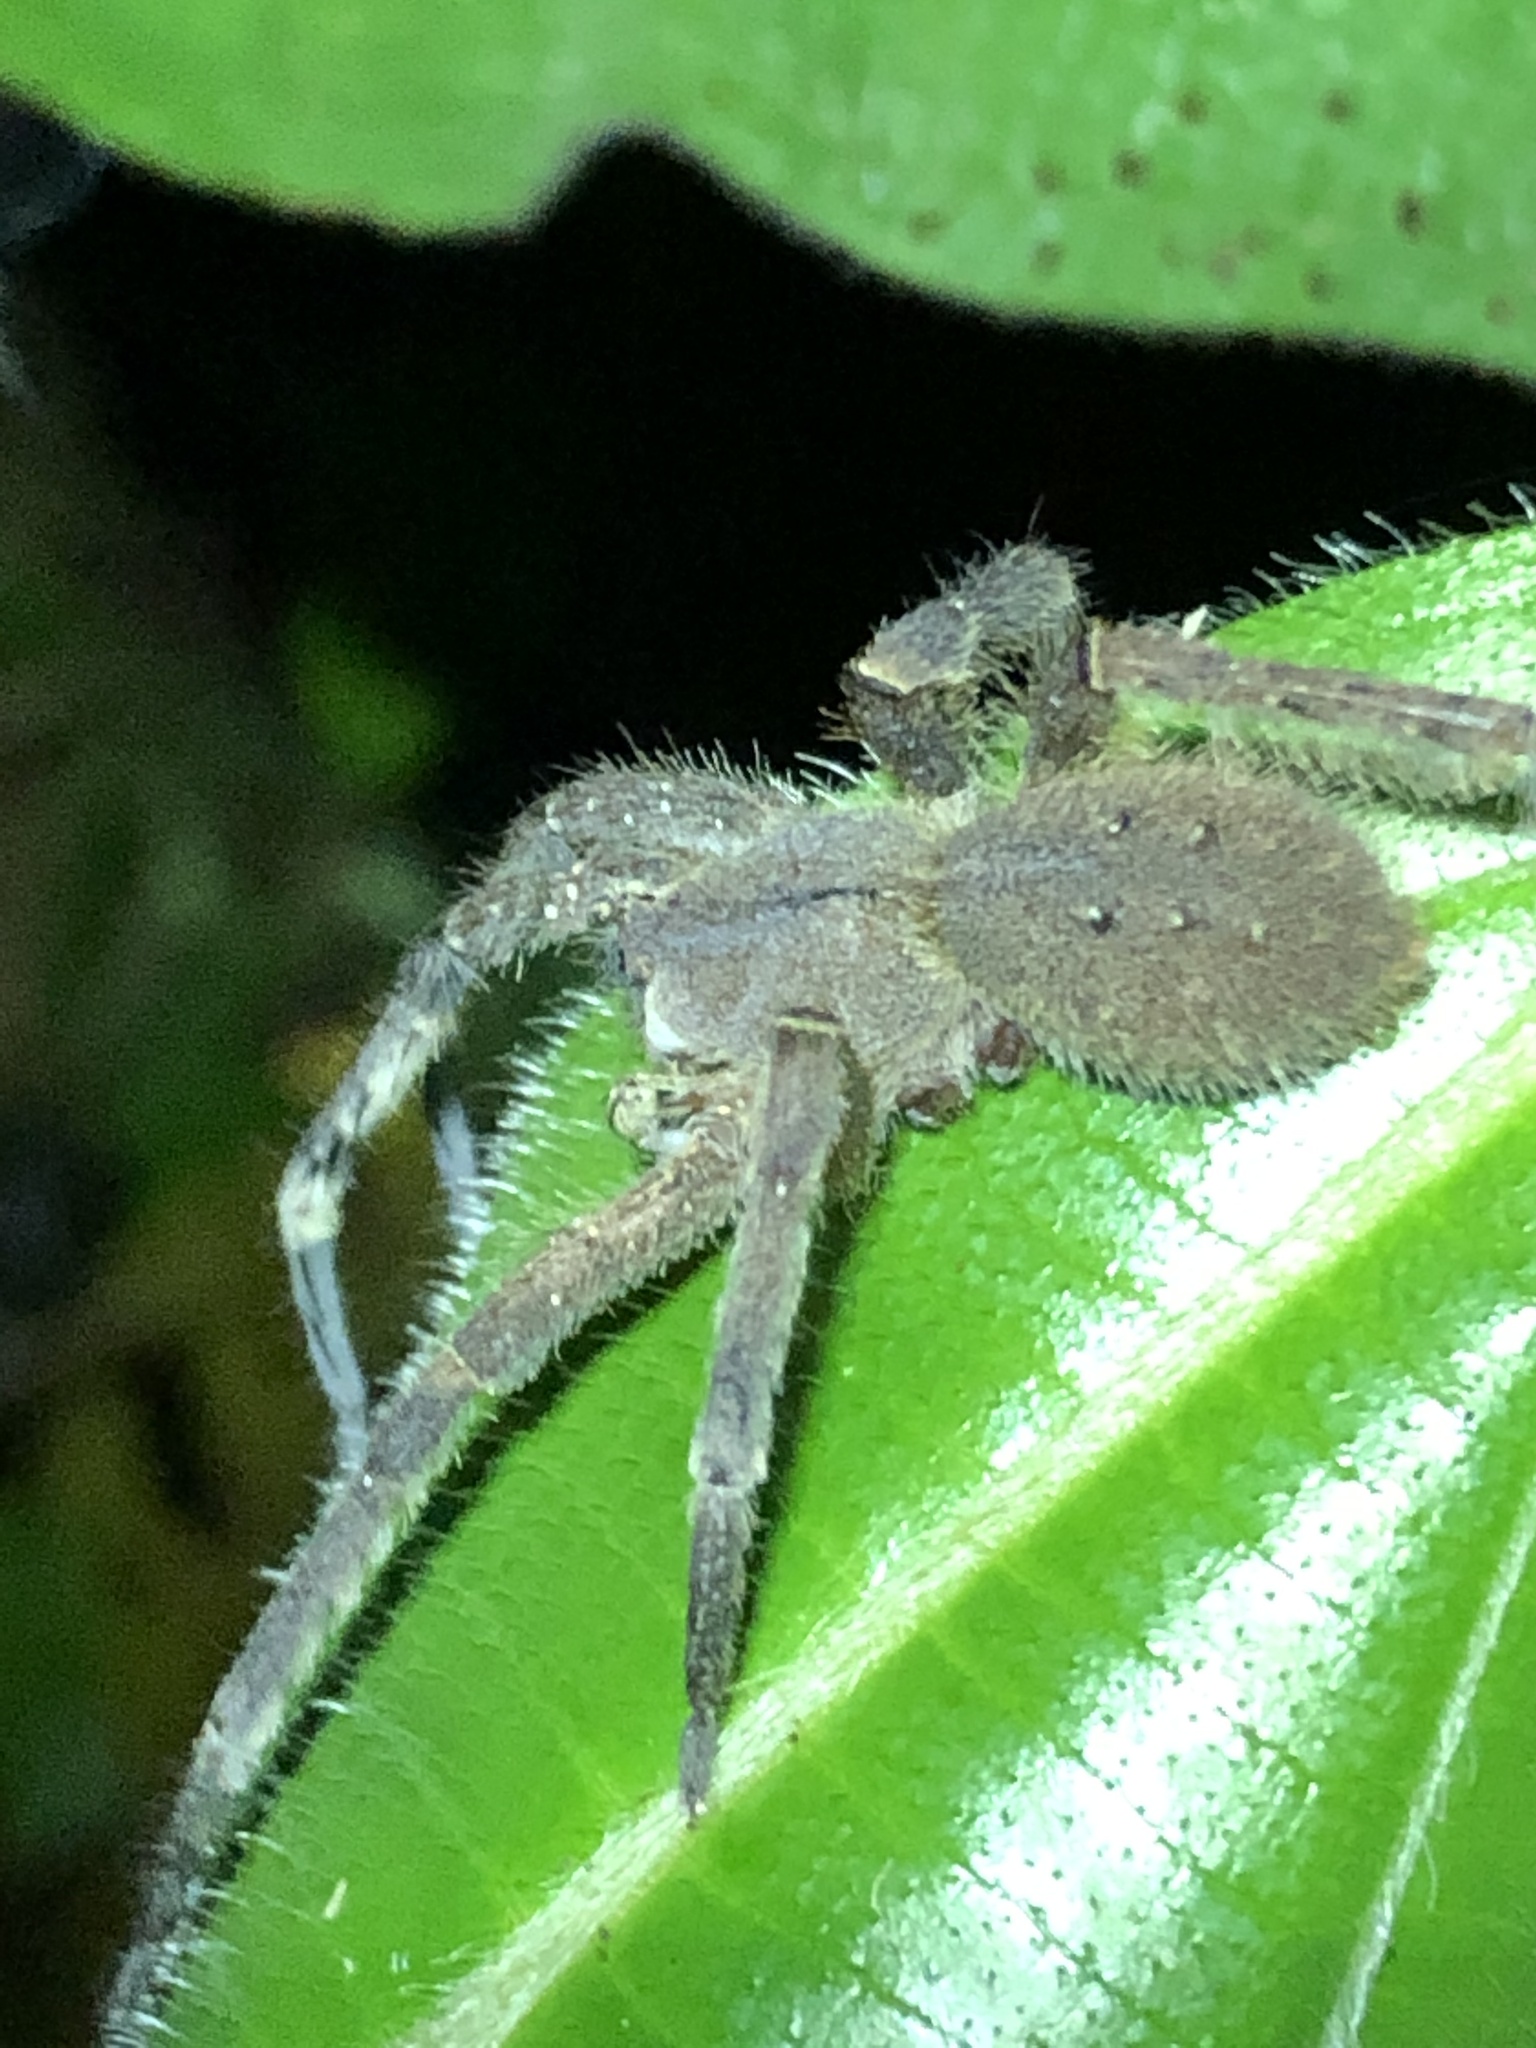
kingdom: Animalia
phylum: Arthropoda
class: Arachnida
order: Araneae
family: Ctenidae
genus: Phoneutria
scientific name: Phoneutria boliviensis
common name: Wandering spiders
